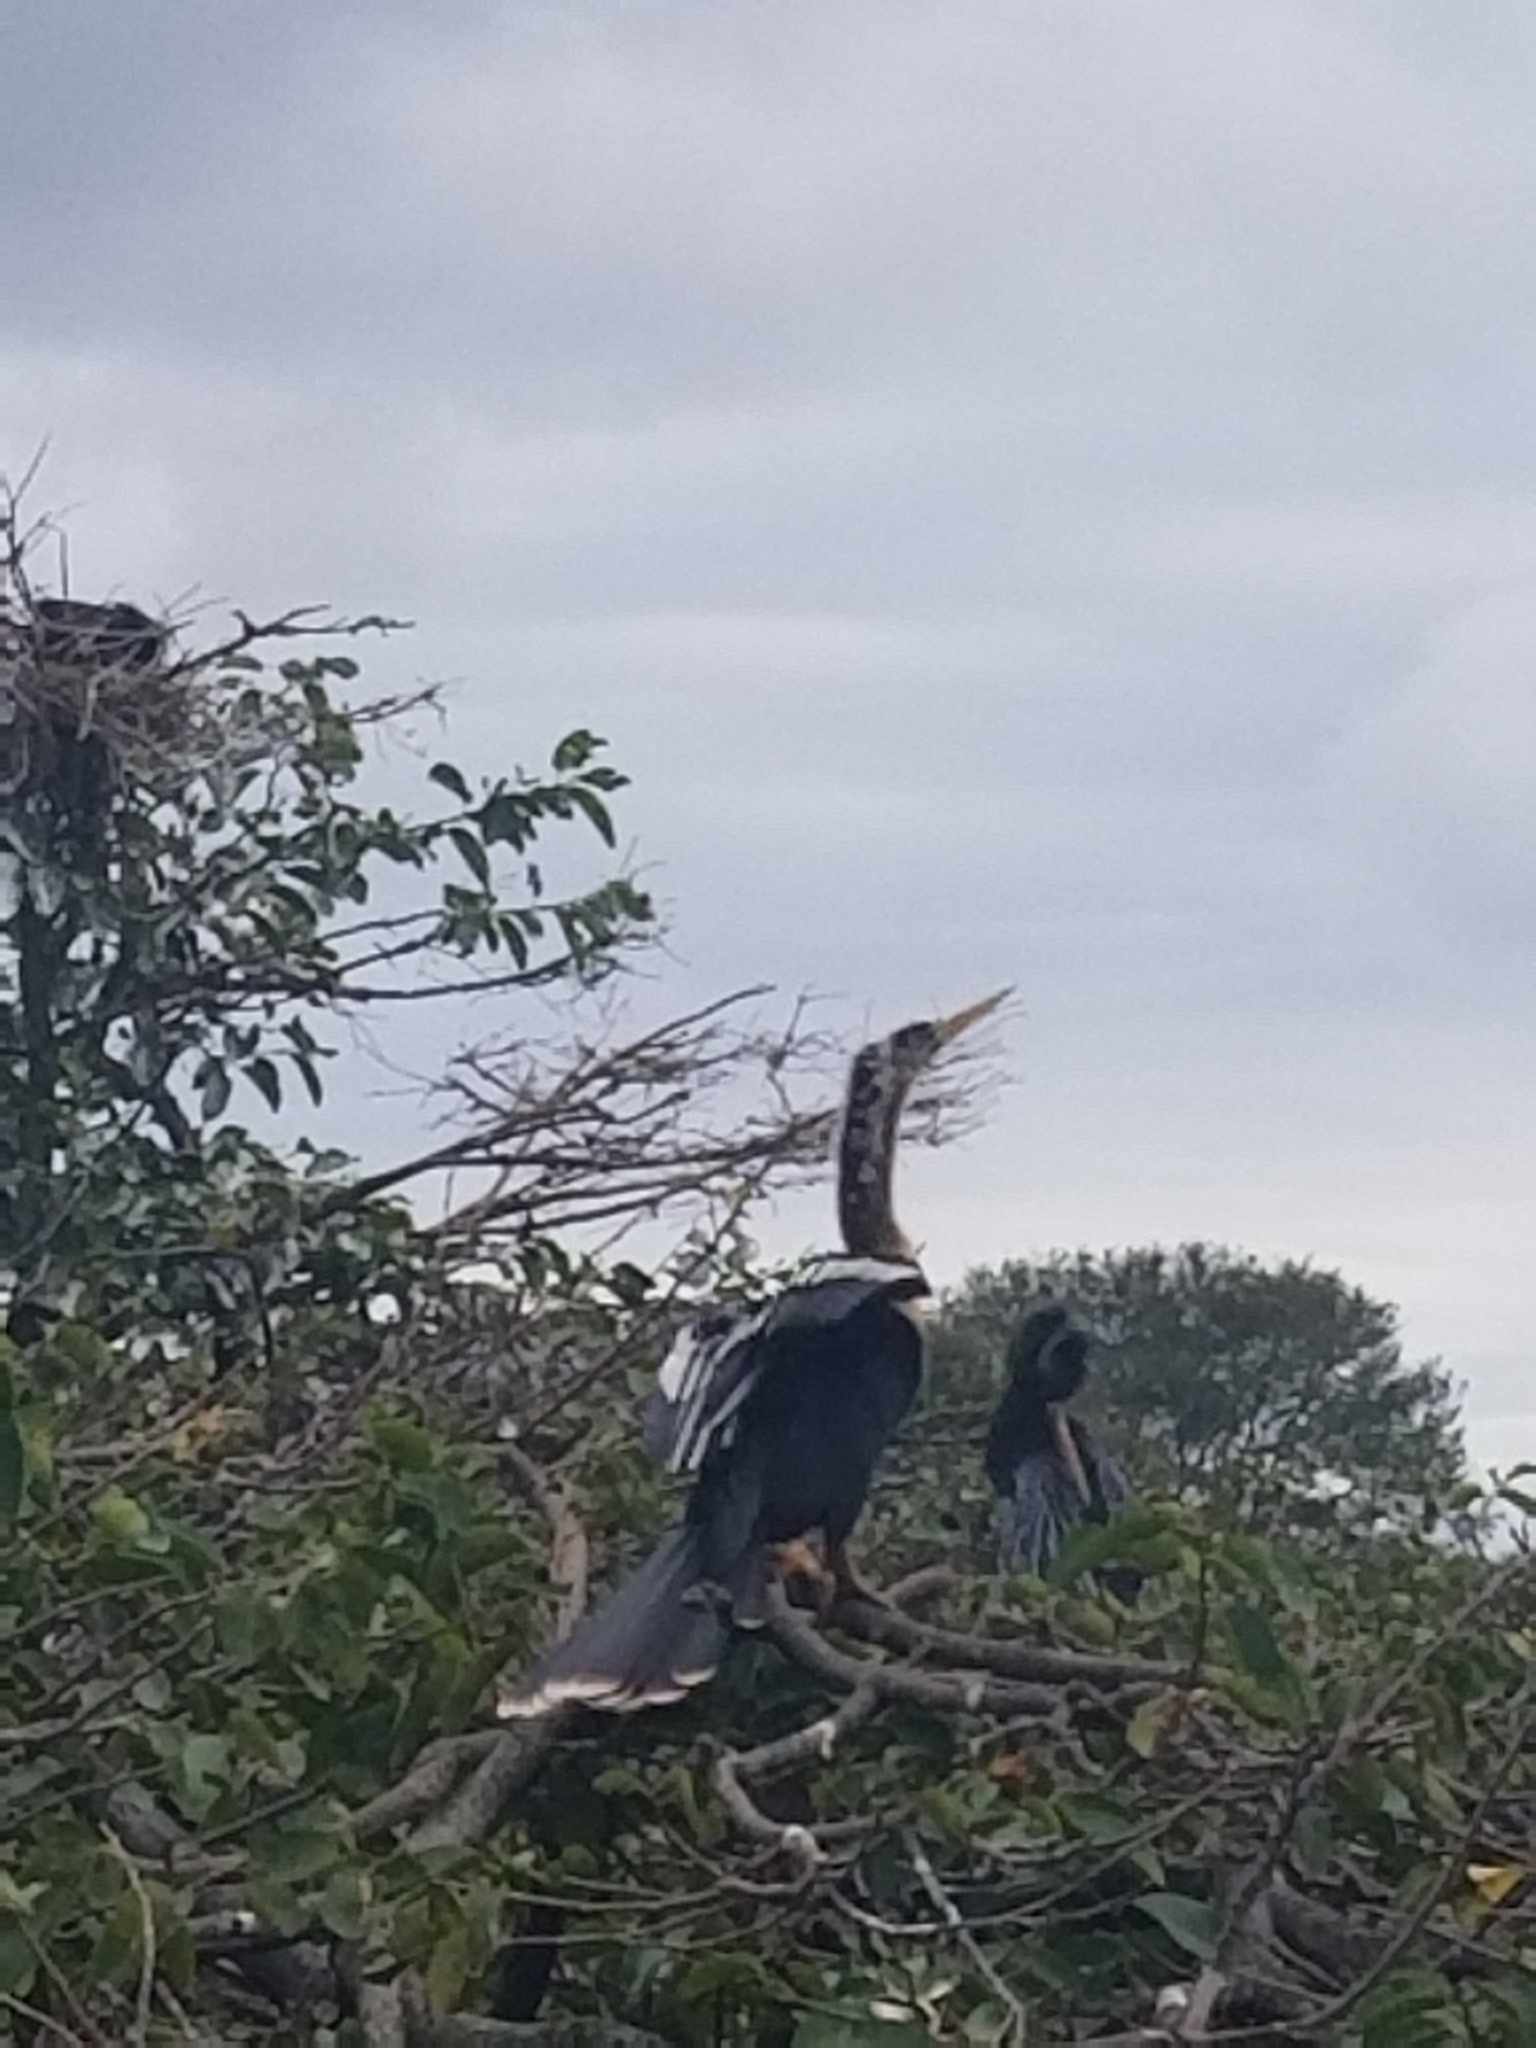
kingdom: Animalia
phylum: Chordata
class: Aves
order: Suliformes
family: Anhingidae
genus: Anhinga
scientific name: Anhinga anhinga
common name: Anhinga
